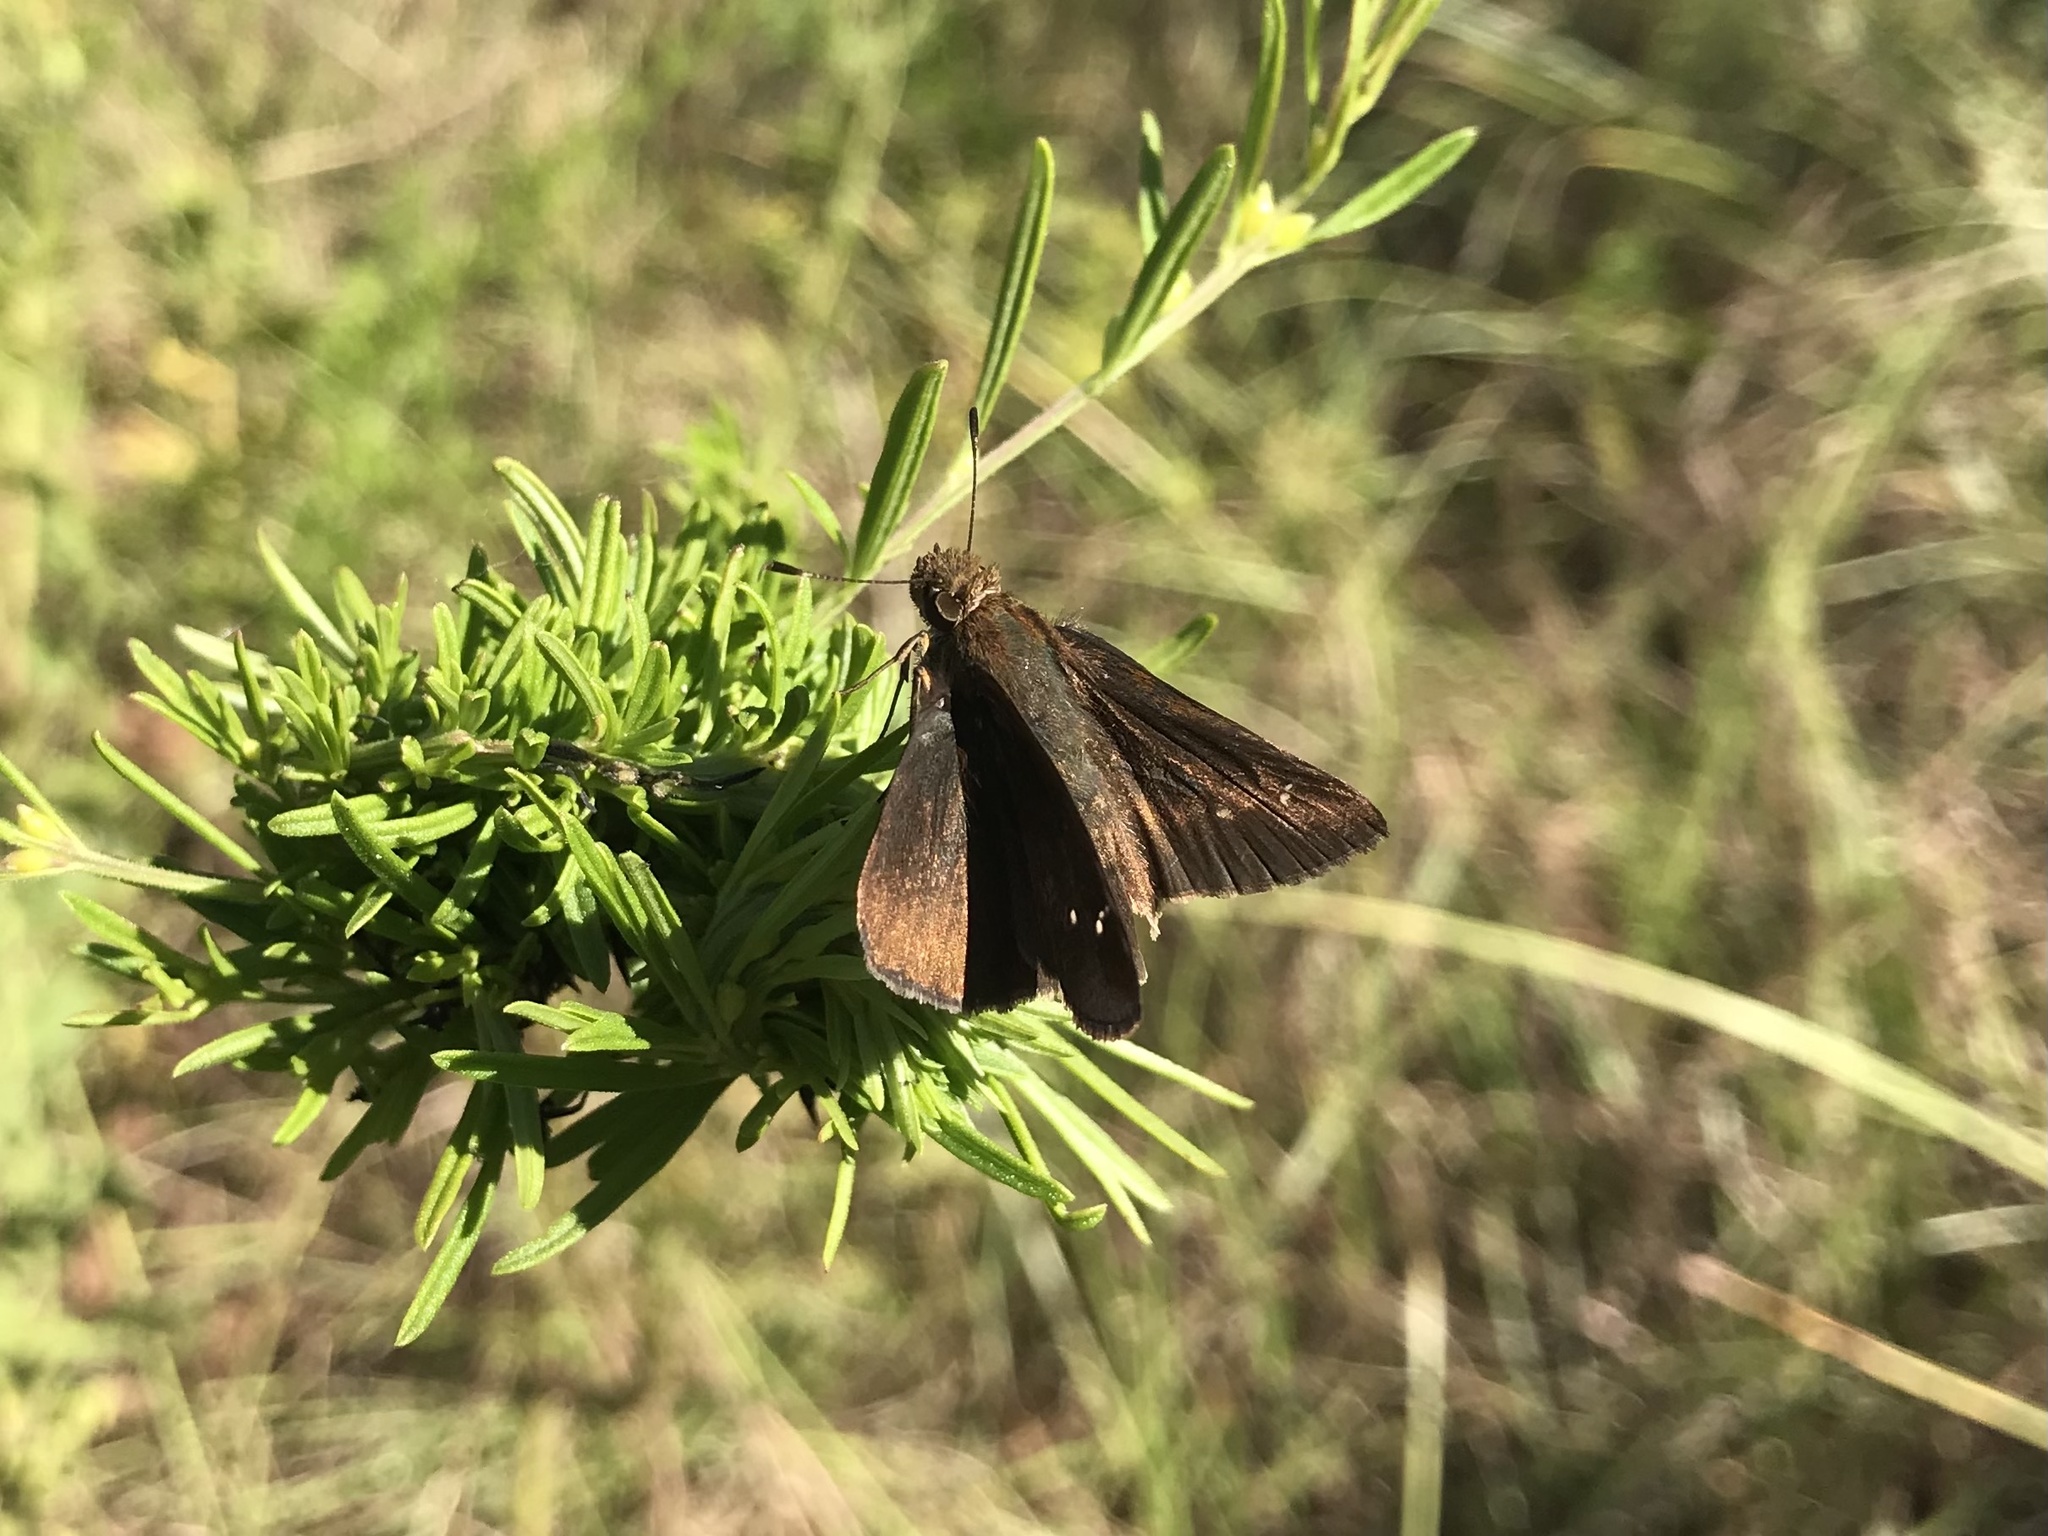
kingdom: Animalia
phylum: Arthropoda
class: Insecta
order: Lepidoptera
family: Hesperiidae
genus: Lerema
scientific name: Lerema accius
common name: Clouded skipper
